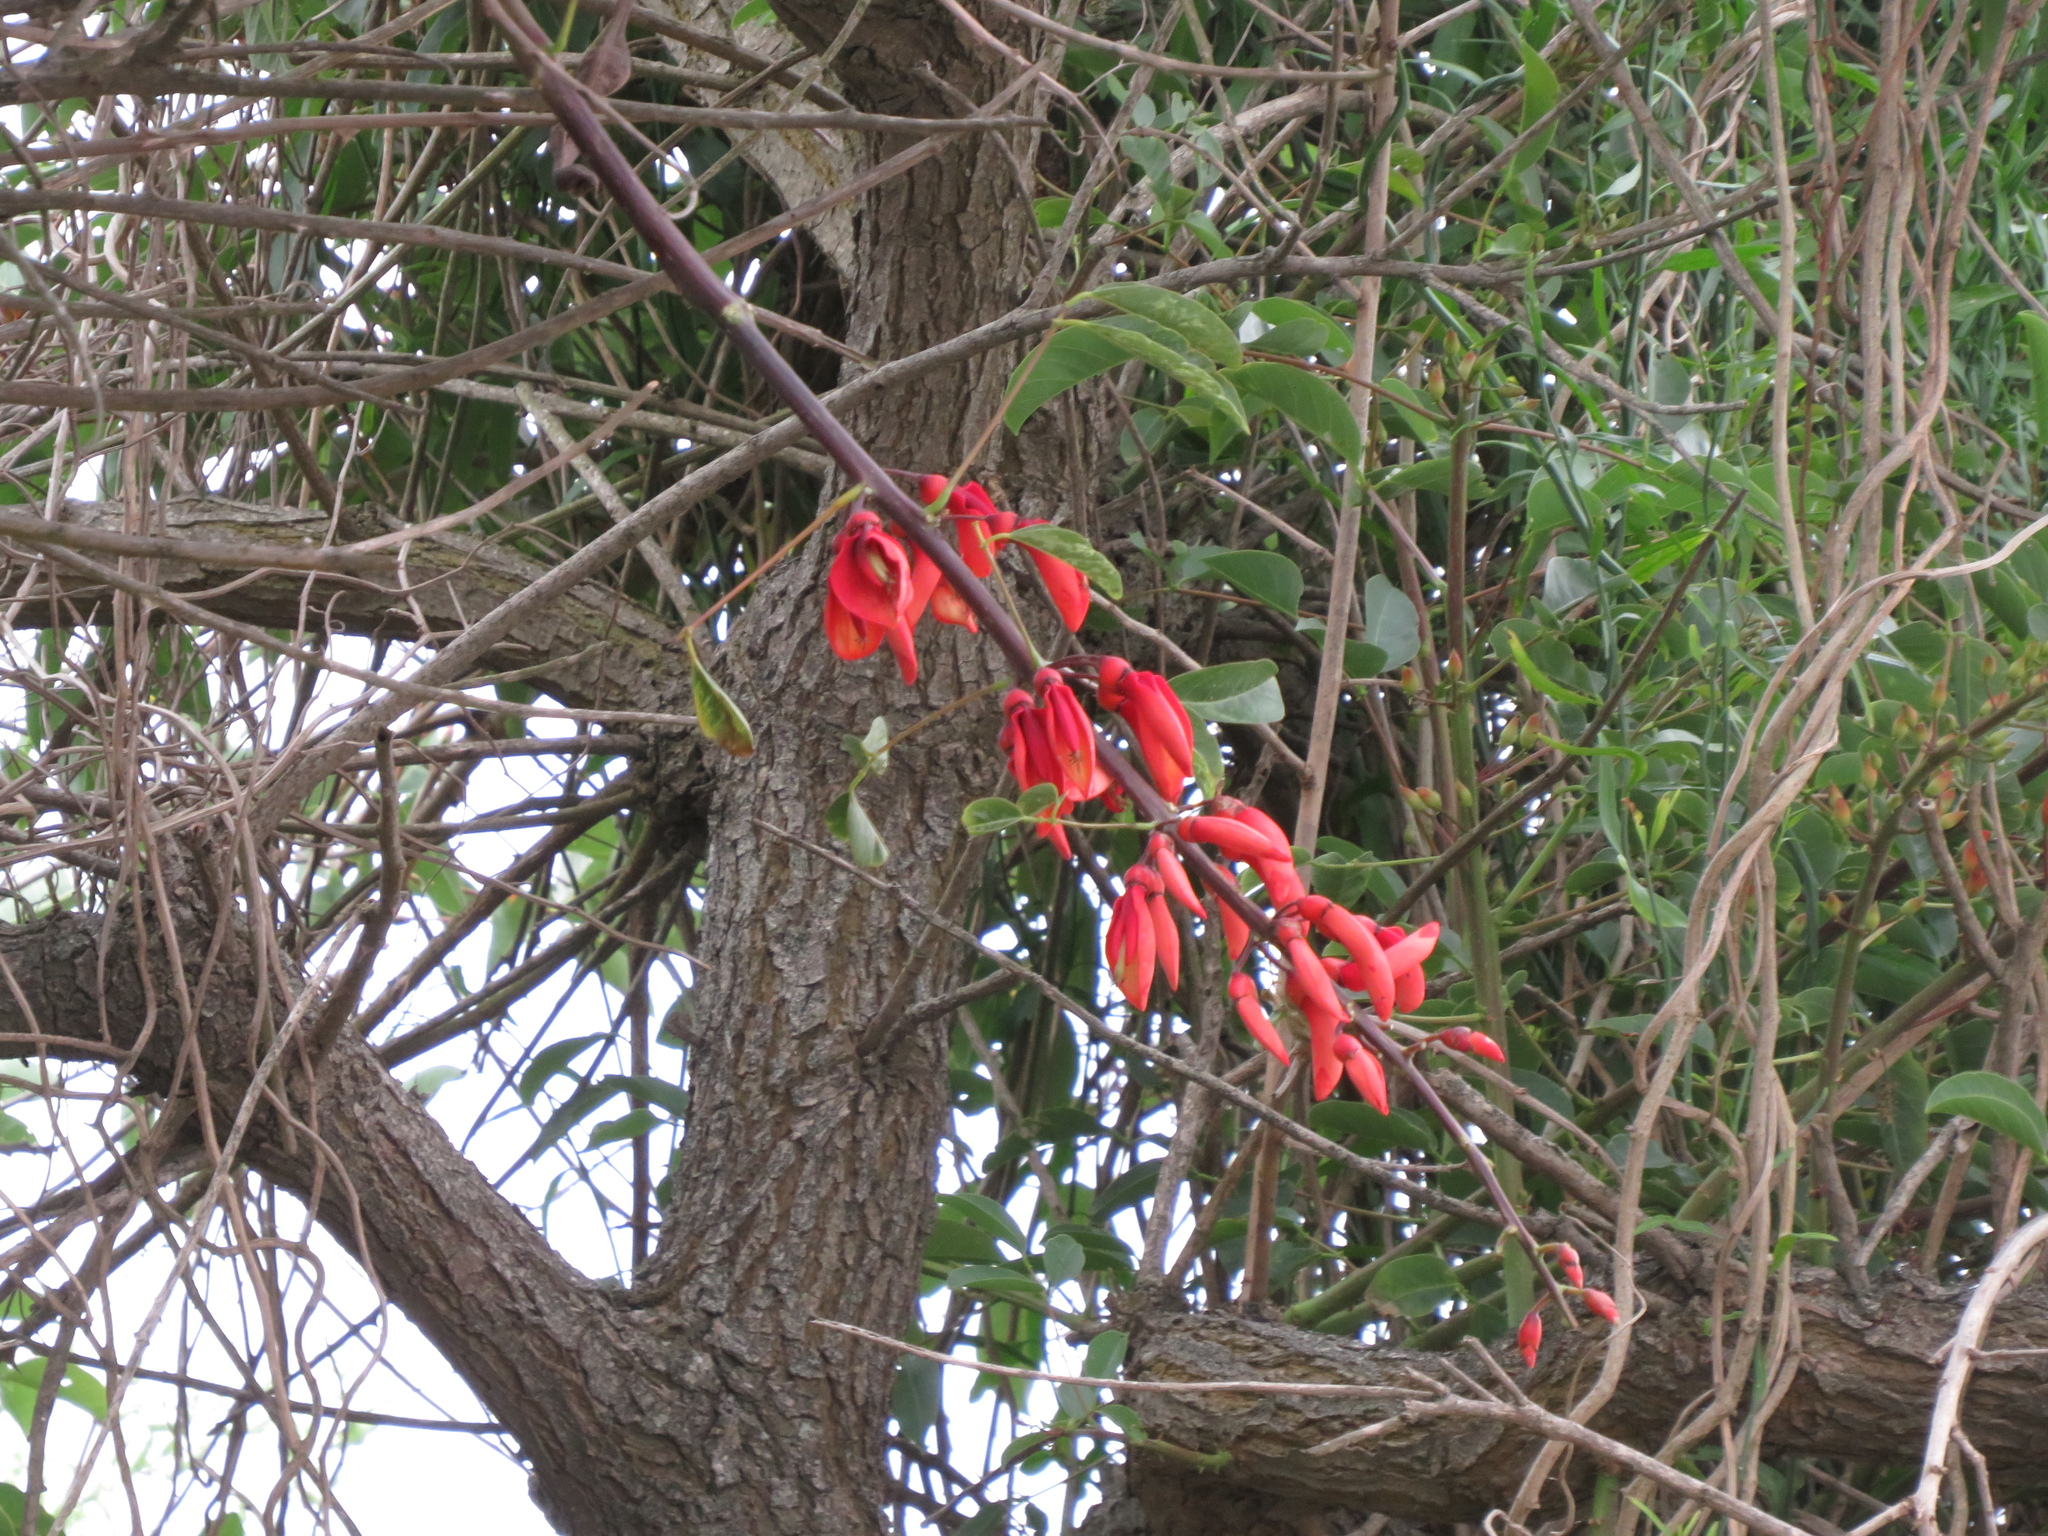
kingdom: Plantae
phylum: Tracheophyta
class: Magnoliopsida
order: Fabales
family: Fabaceae
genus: Erythrina
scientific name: Erythrina crista-galli
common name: Cockspur coral tree
